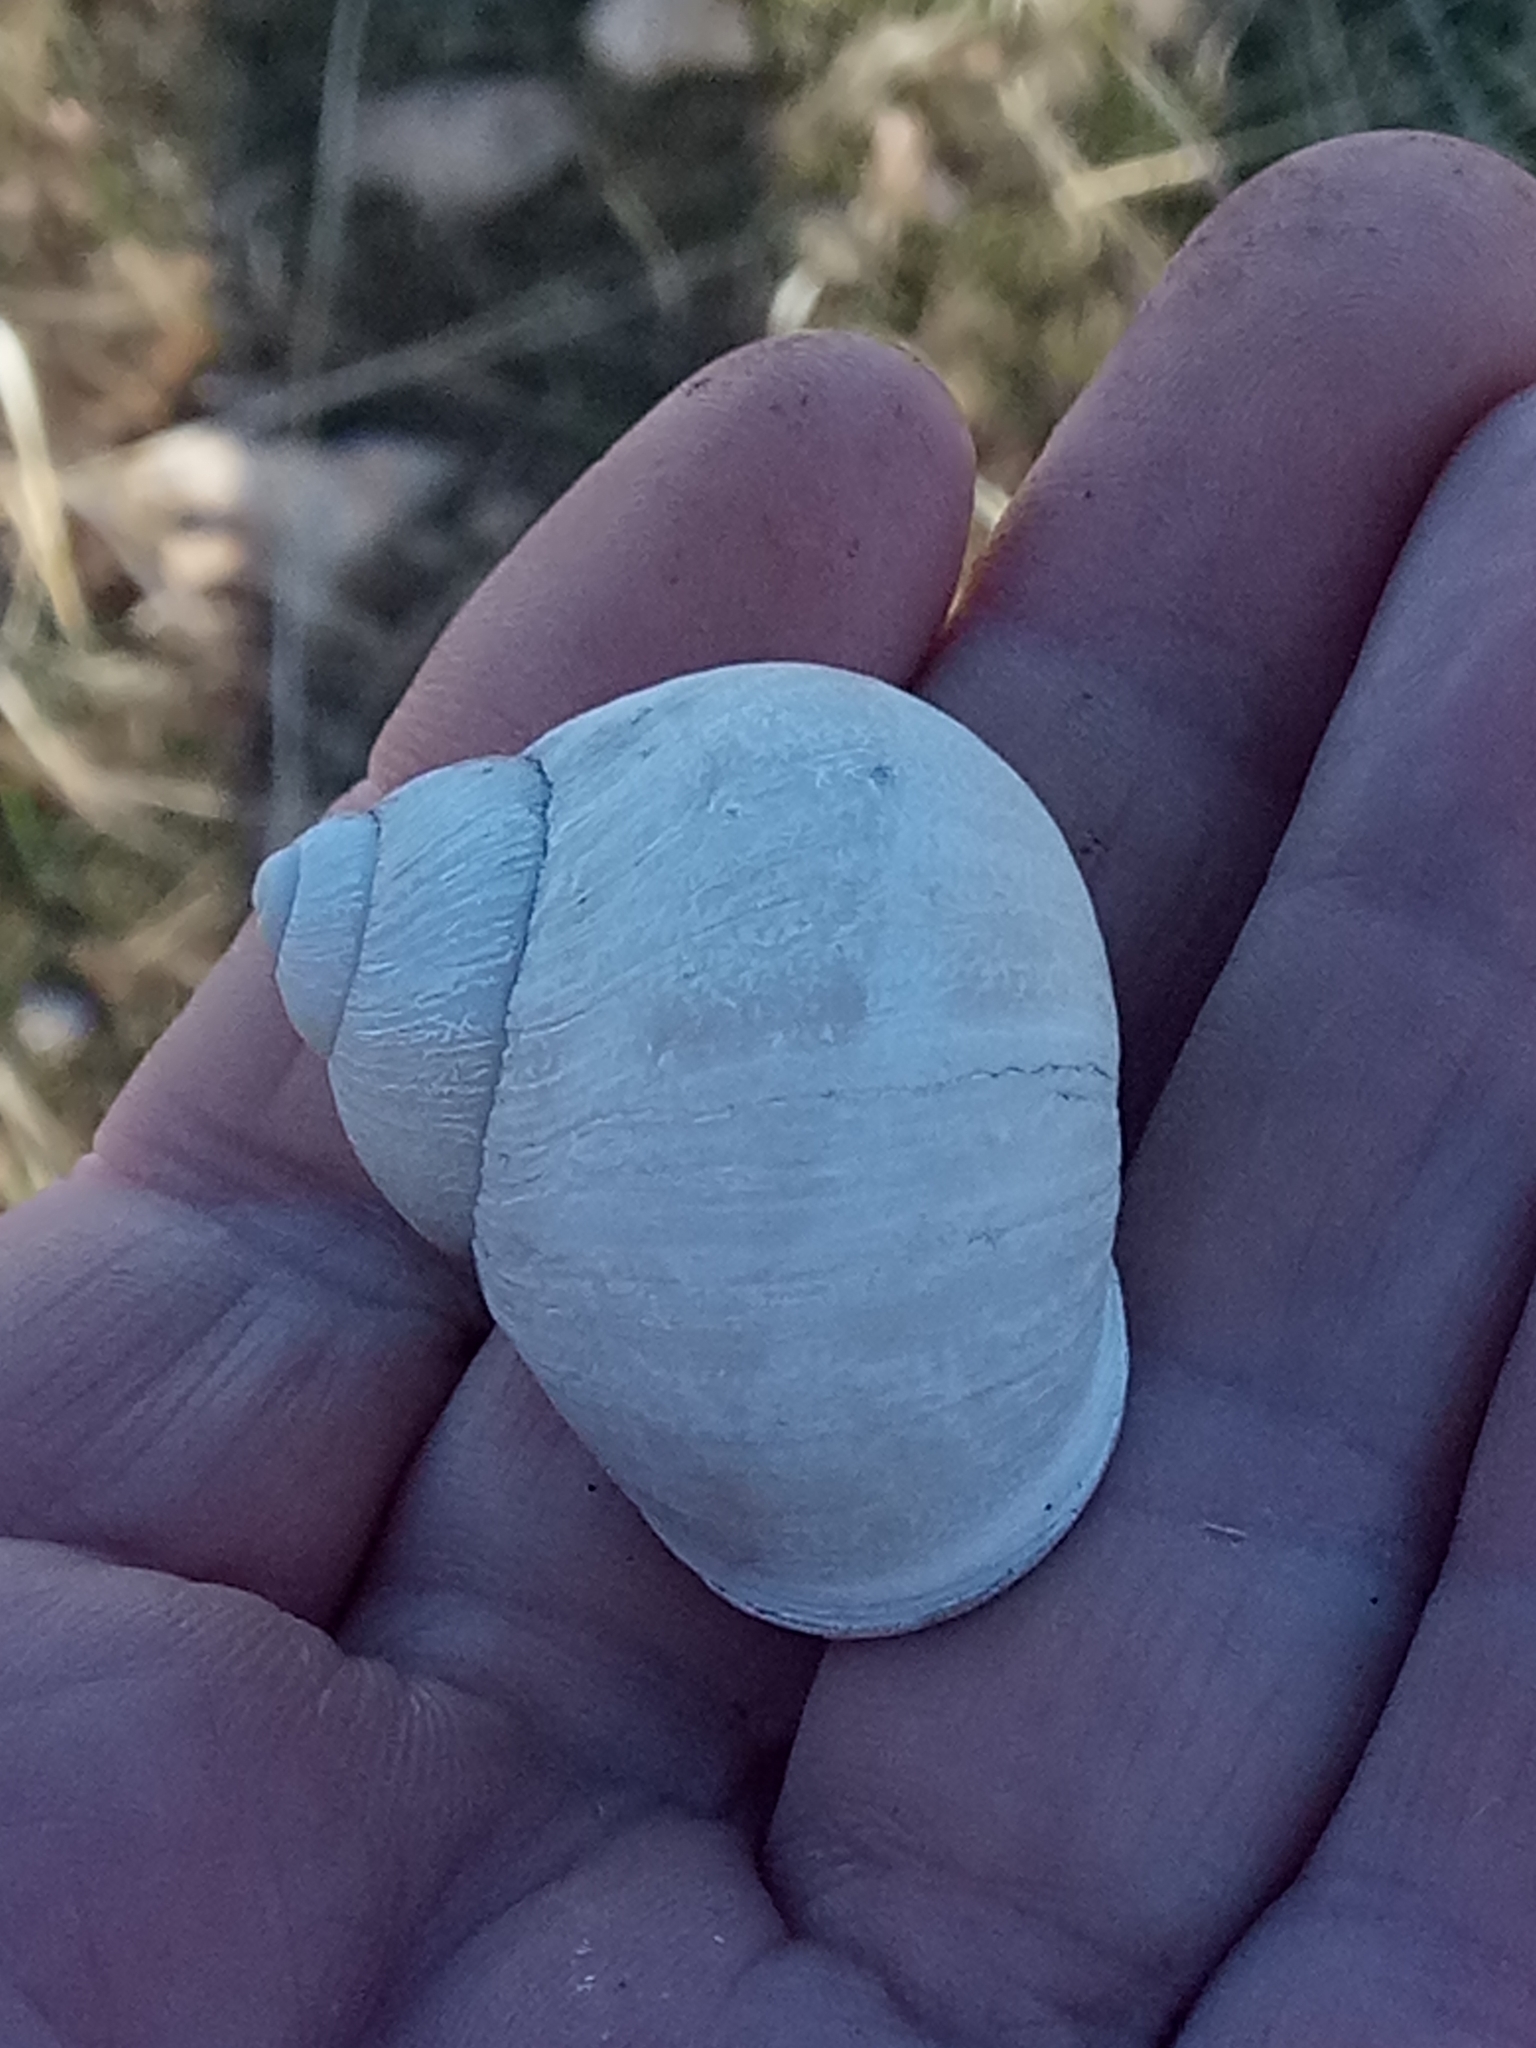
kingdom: Animalia
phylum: Mollusca
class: Gastropoda
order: Stylommatophora
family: Helicidae
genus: Cornu
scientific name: Cornu aspersum
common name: Brown garden snail
